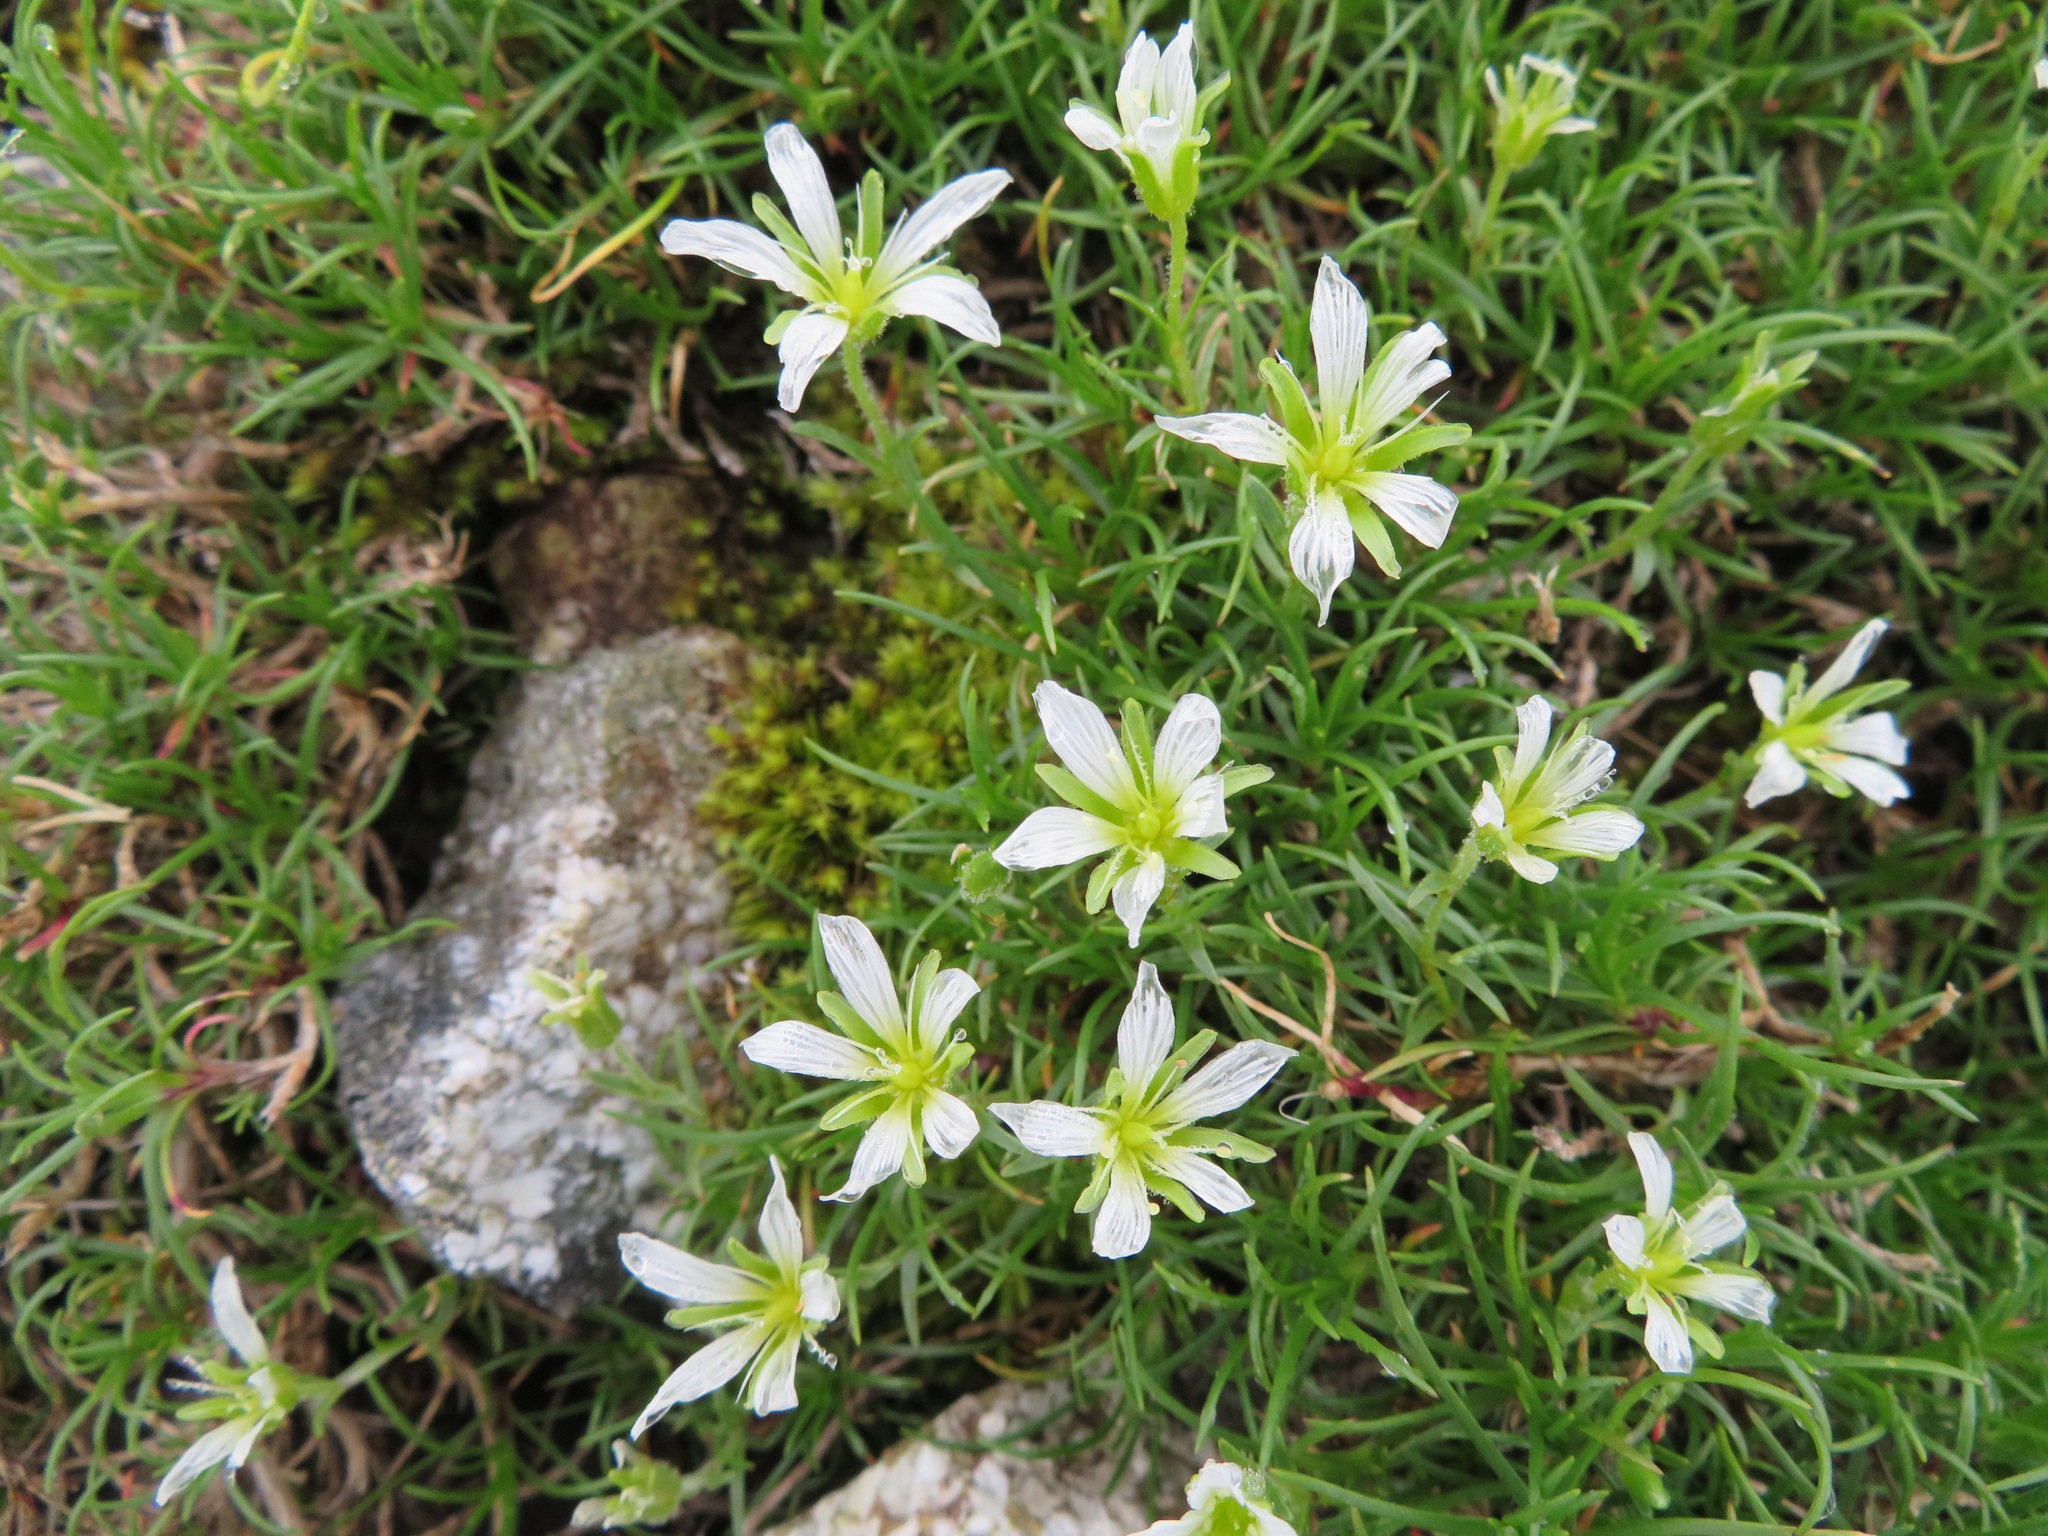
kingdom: Plantae
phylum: Tracheophyta
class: Magnoliopsida
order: Caryophyllales
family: Caryophyllaceae
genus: Cherleria
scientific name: Cherleria arctica
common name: Arctic sandwort
